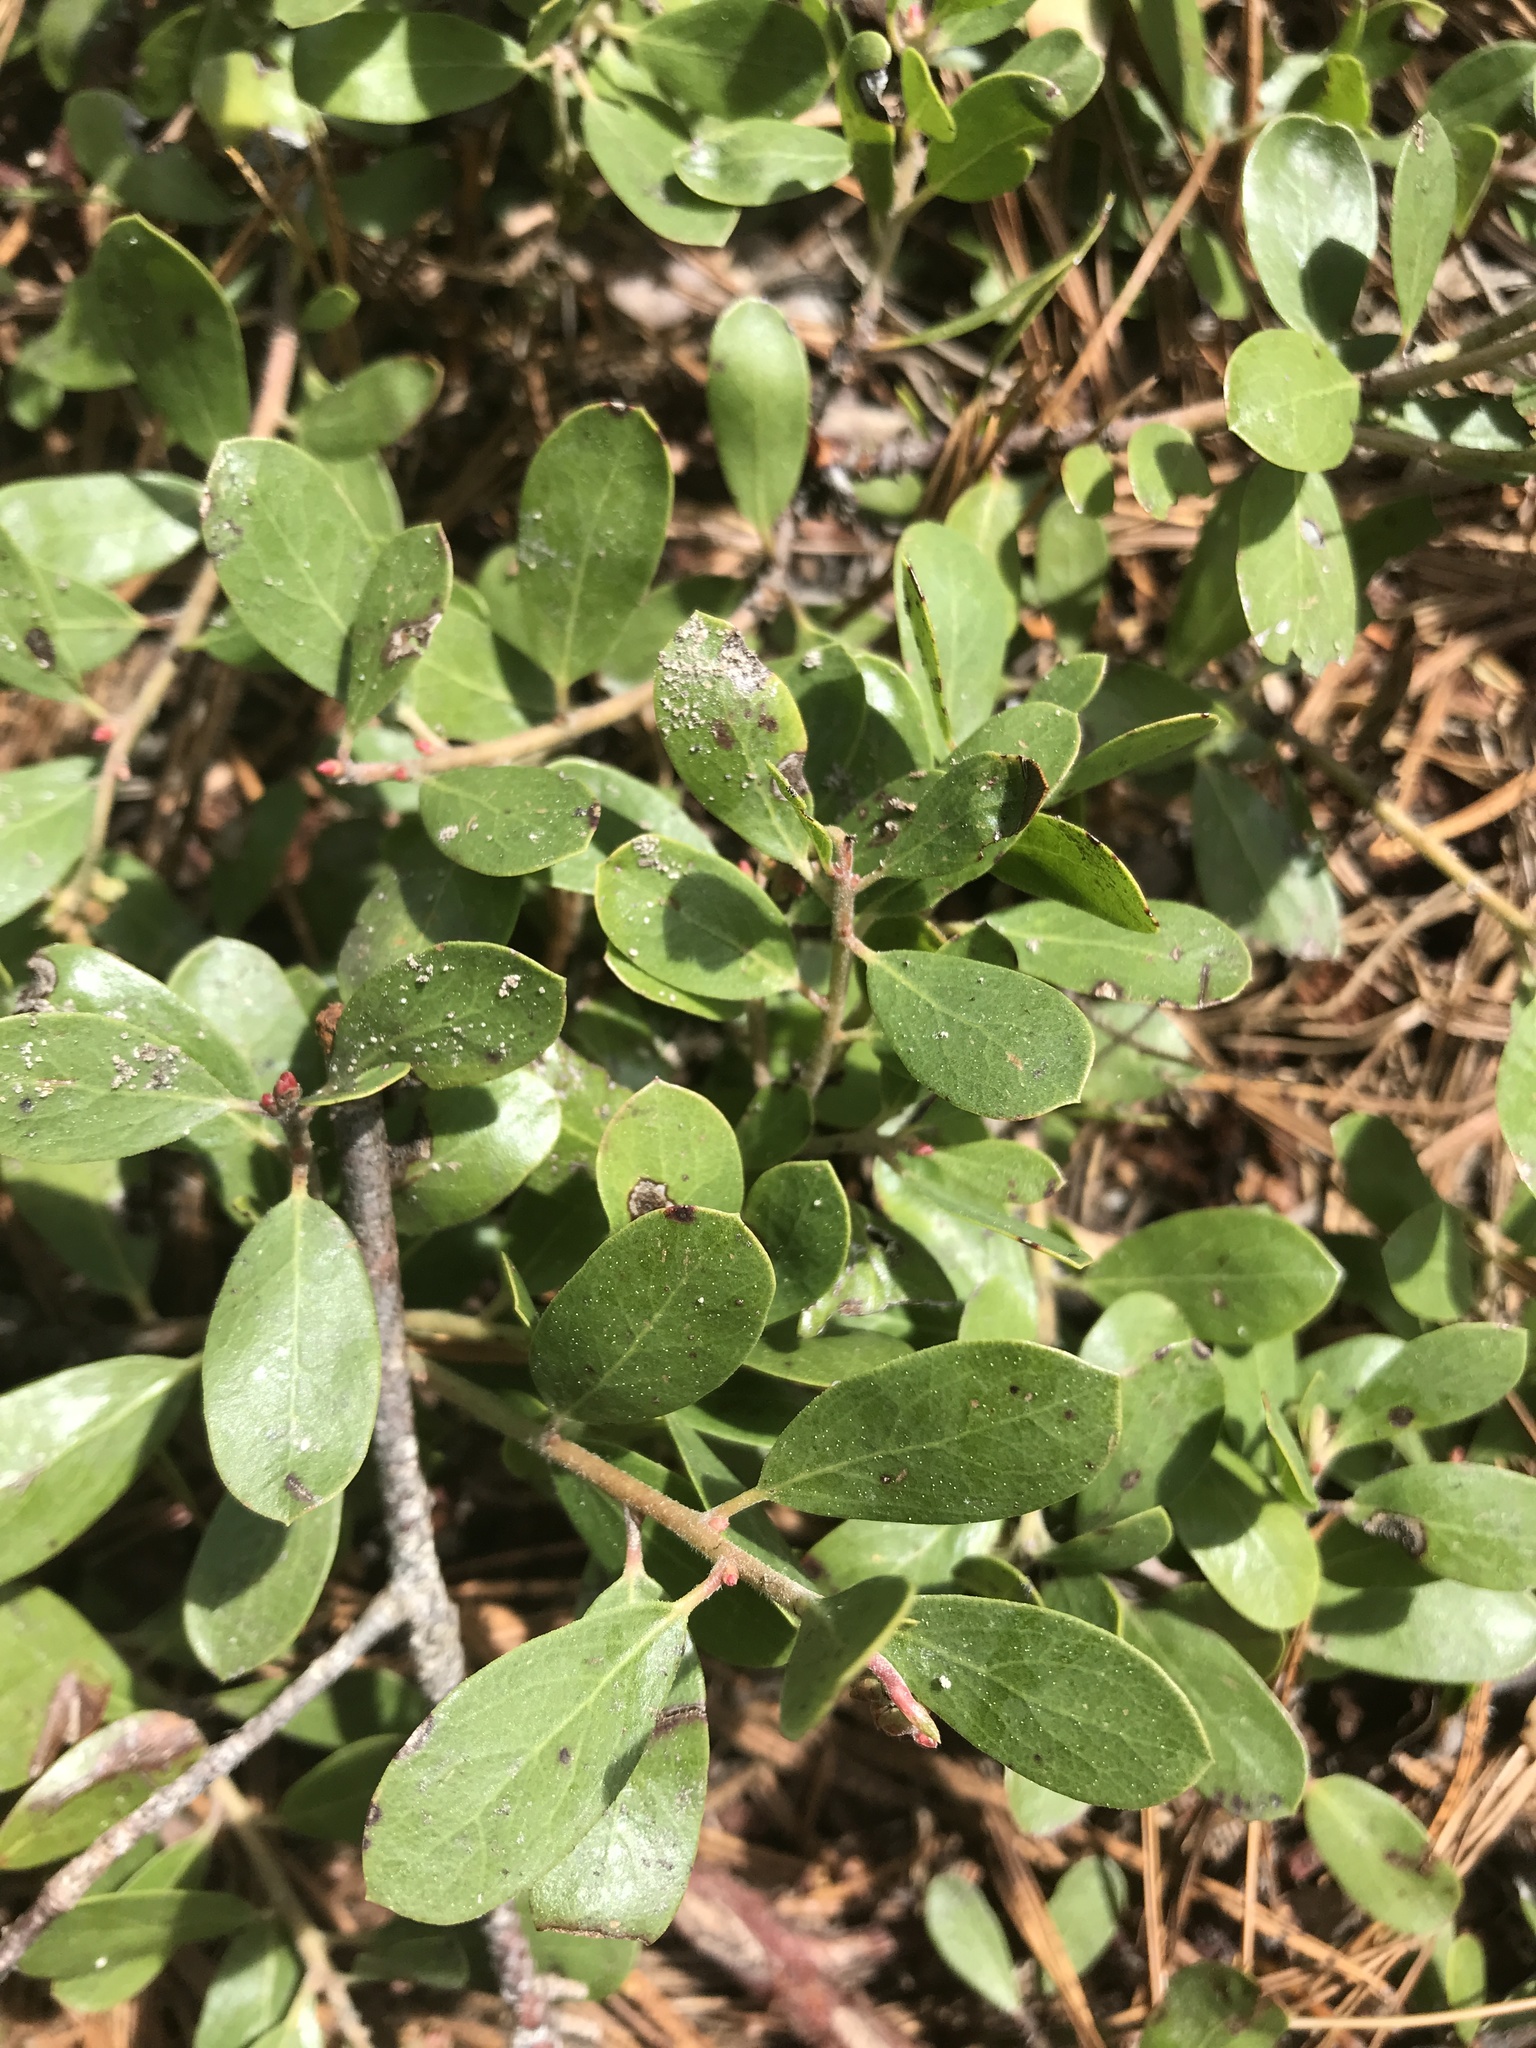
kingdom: Plantae
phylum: Tracheophyta
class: Magnoliopsida
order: Ericales
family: Ericaceae
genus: Arctostaphylos
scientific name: Arctostaphylos nevadensis
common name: Pinemat manzanita
